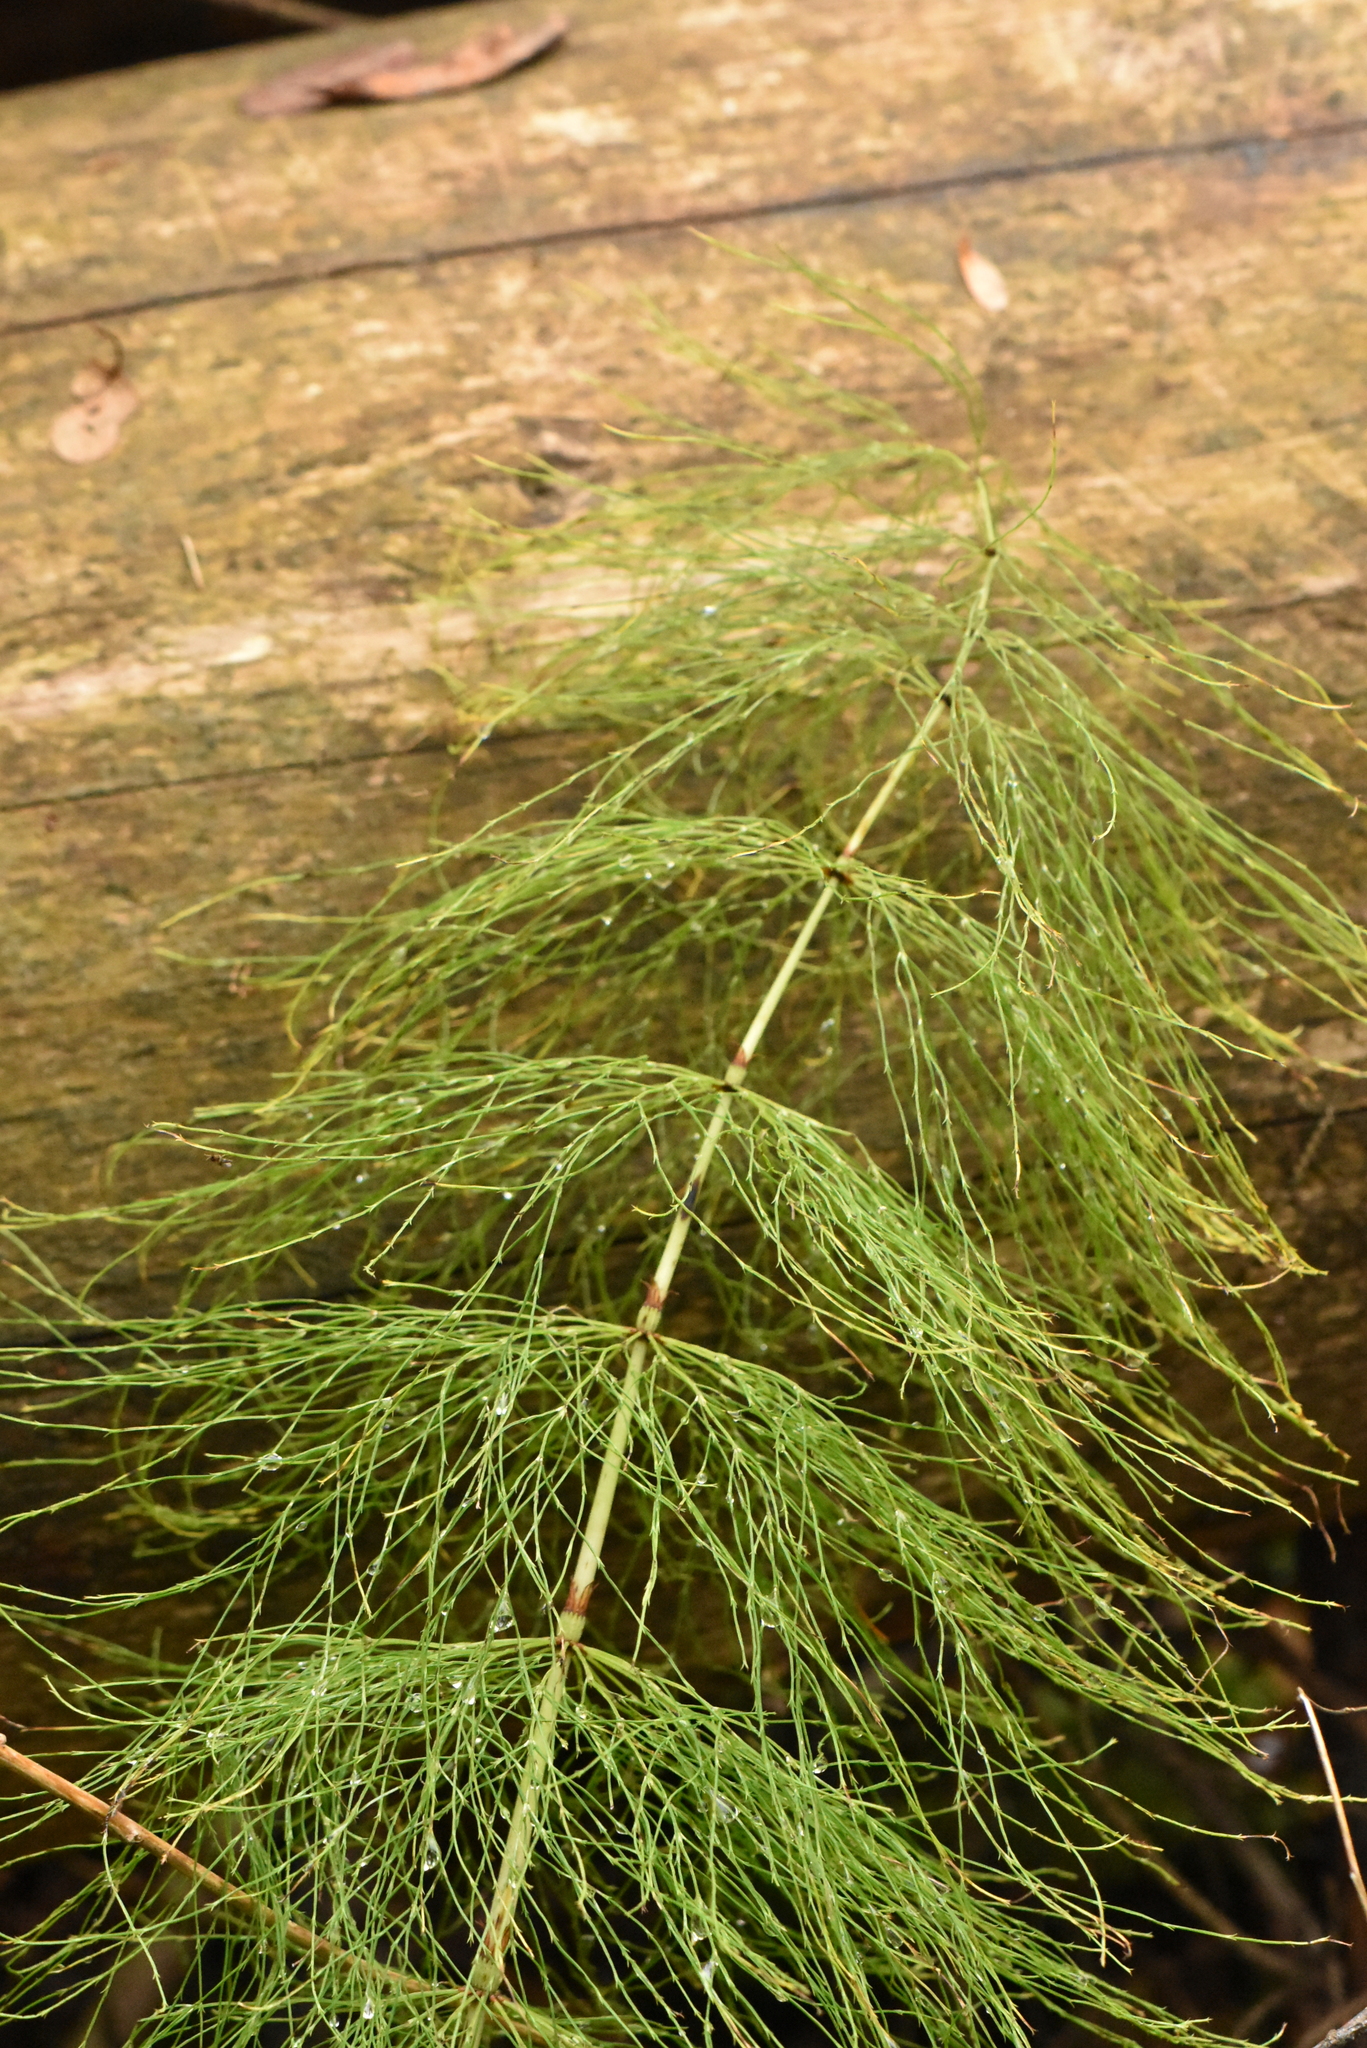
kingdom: Plantae
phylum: Tracheophyta
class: Polypodiopsida
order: Equisetales
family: Equisetaceae
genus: Equisetum
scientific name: Equisetum sylvaticum
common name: Wood horsetail
